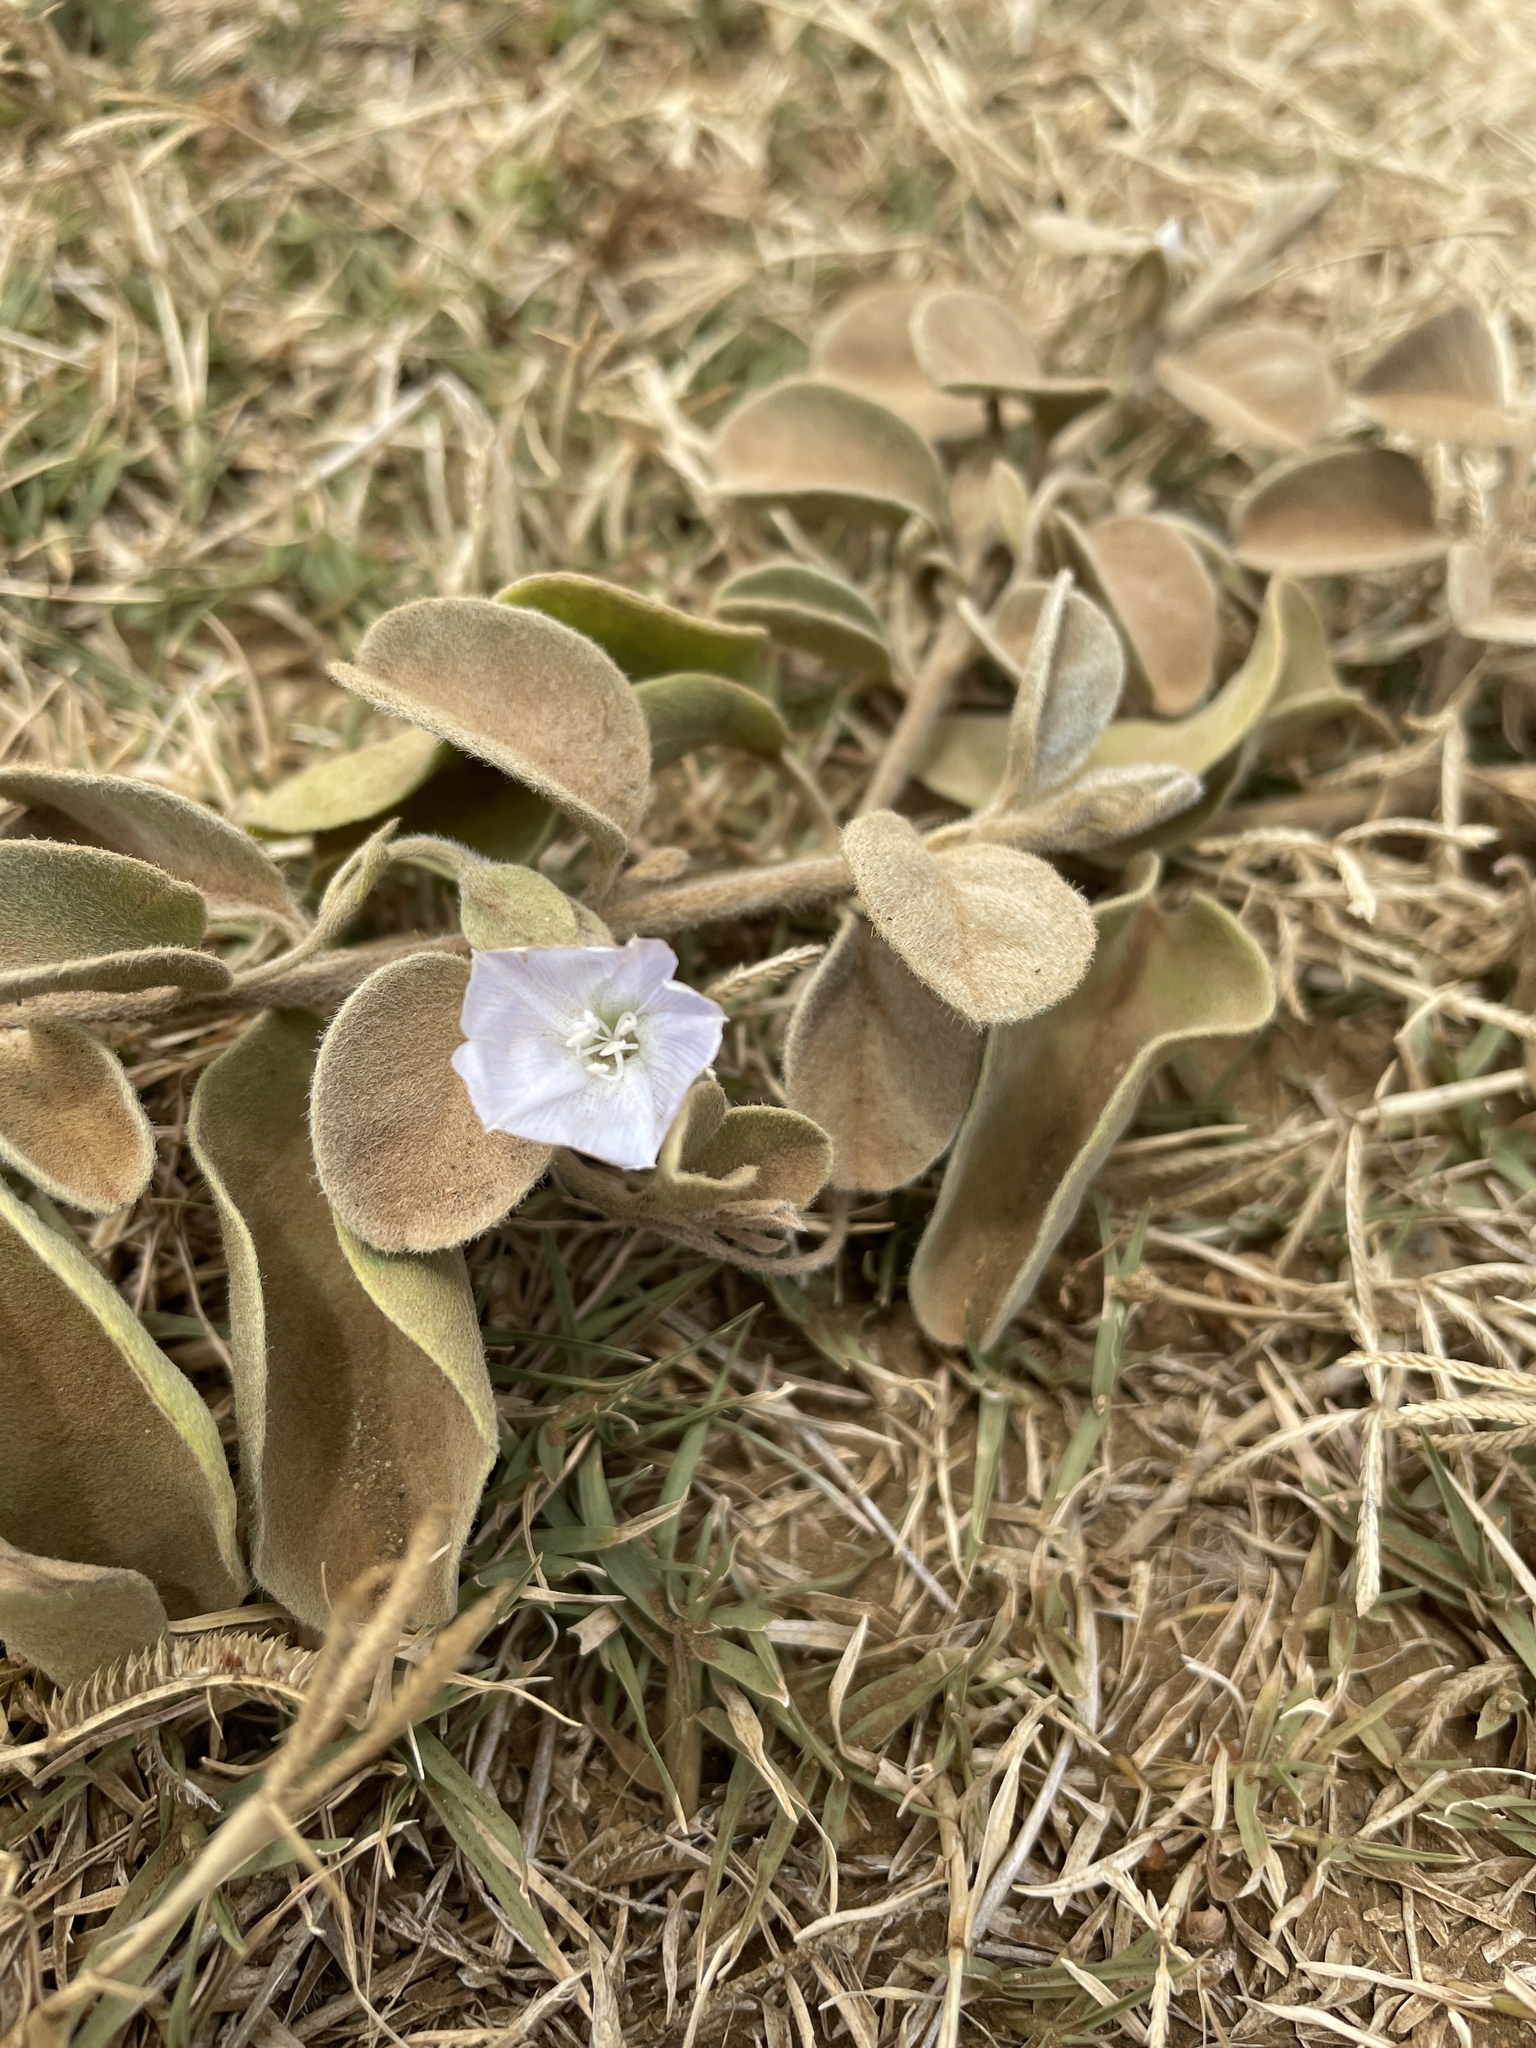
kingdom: Plantae
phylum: Tracheophyta
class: Magnoliopsida
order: Solanales
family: Convolvulaceae
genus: Jacquemontia
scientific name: Jacquemontia sandwicensis
